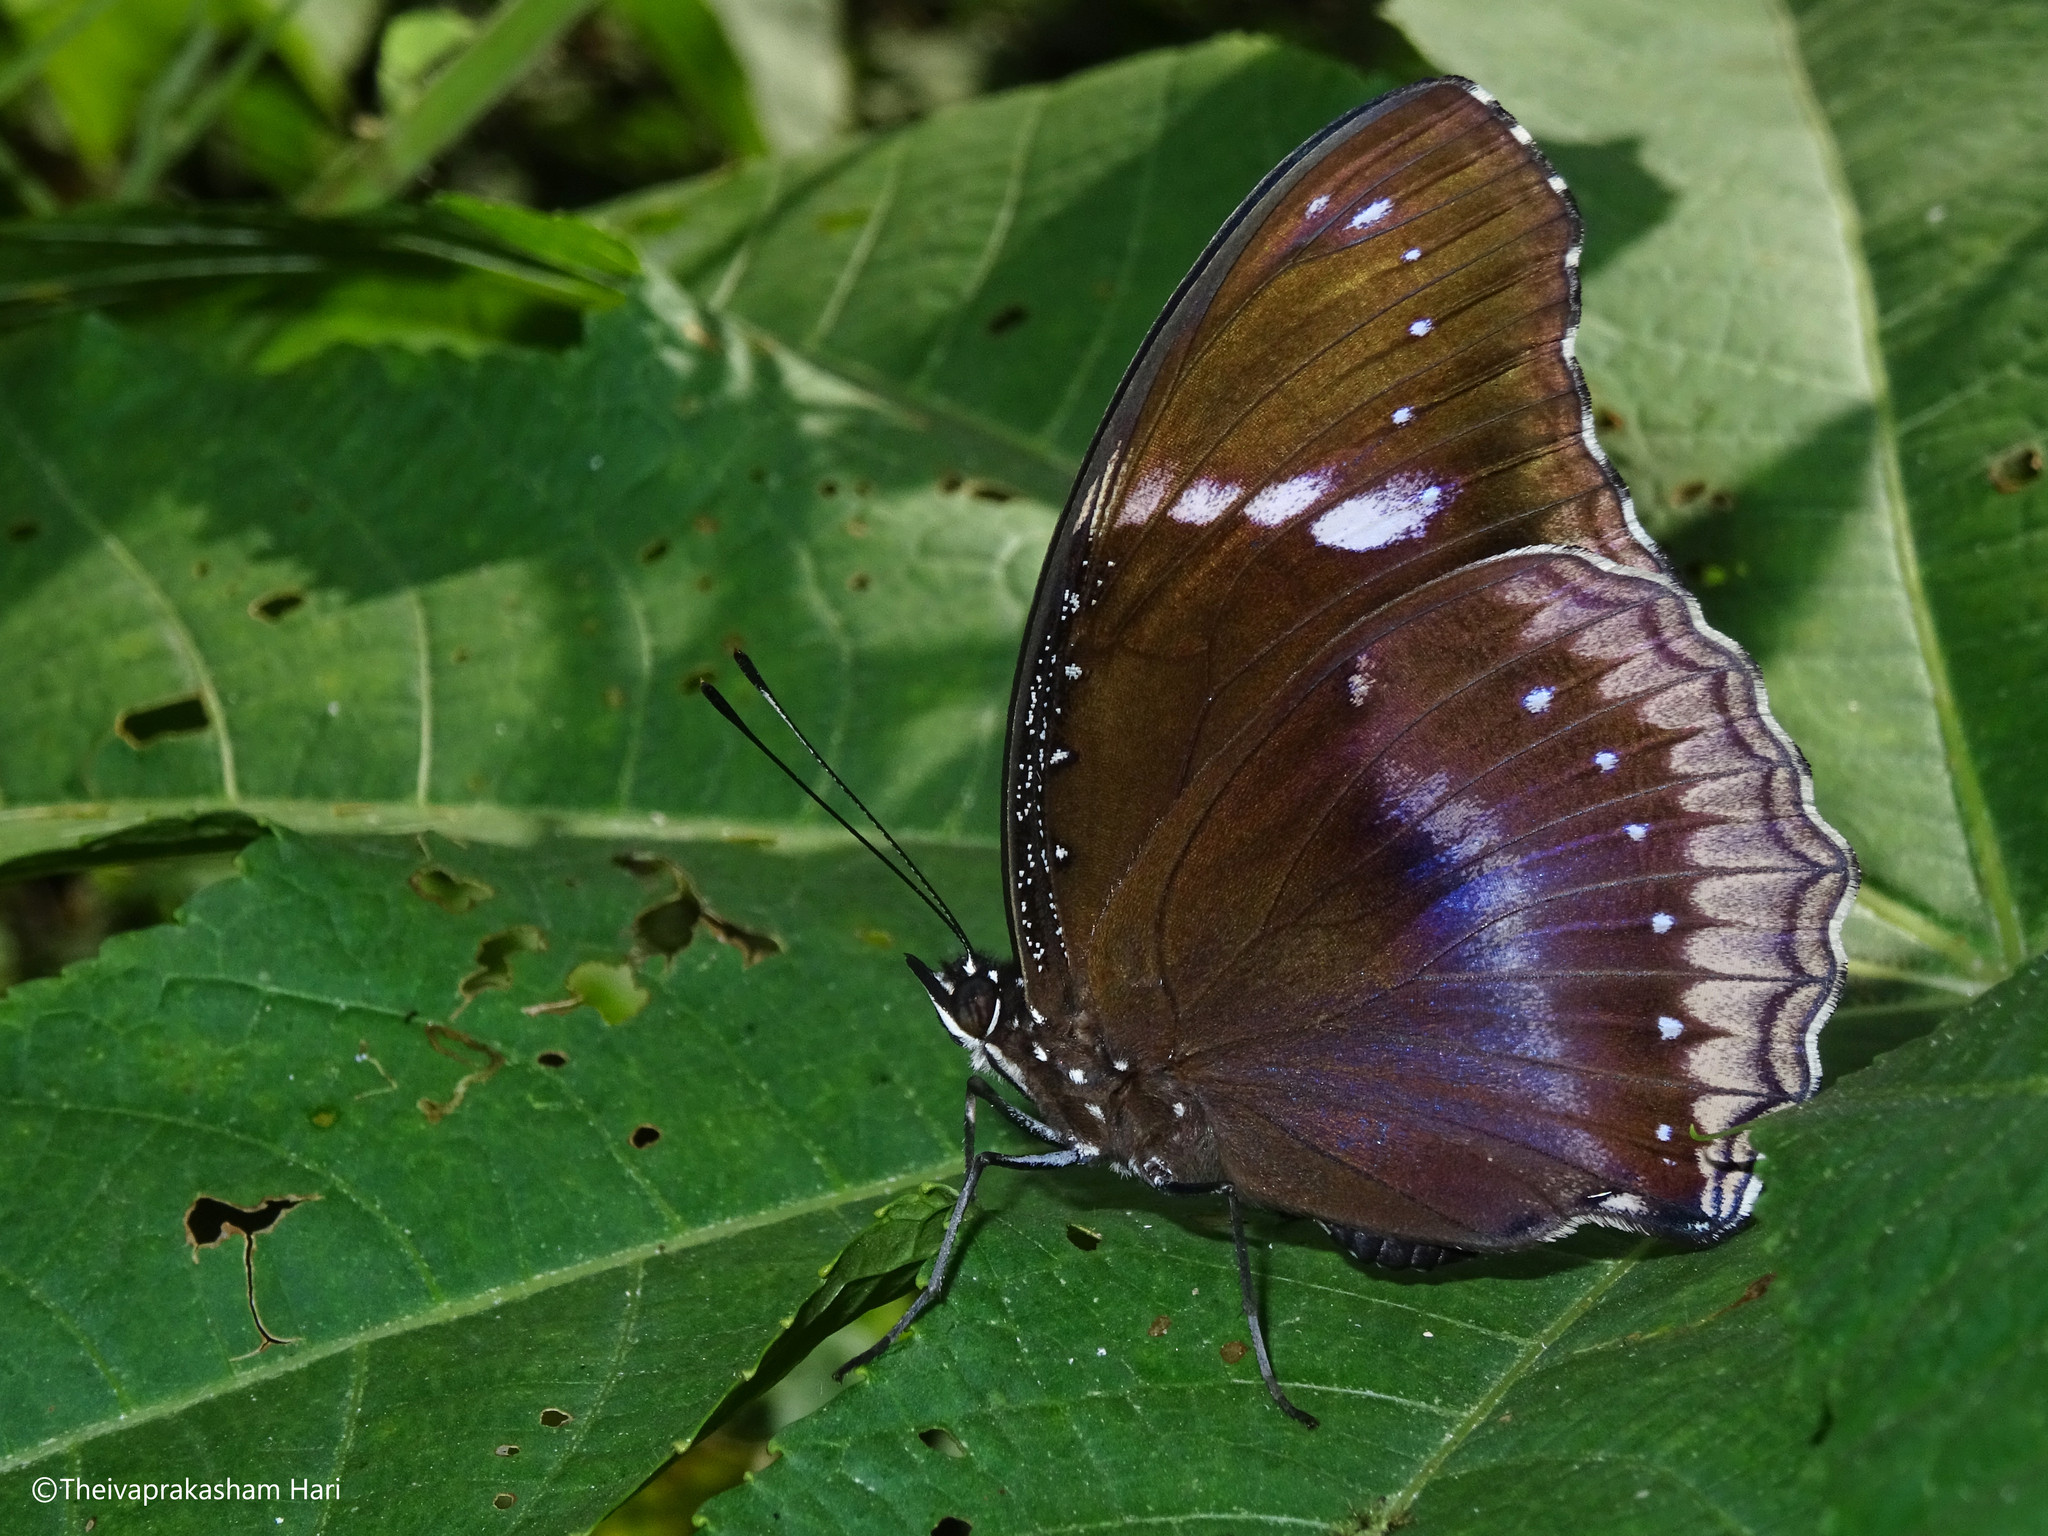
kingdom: Animalia
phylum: Arthropoda
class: Insecta
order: Lepidoptera
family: Nymphalidae
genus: Hypolimnas
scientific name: Hypolimnas bolina
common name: Great eggfly
